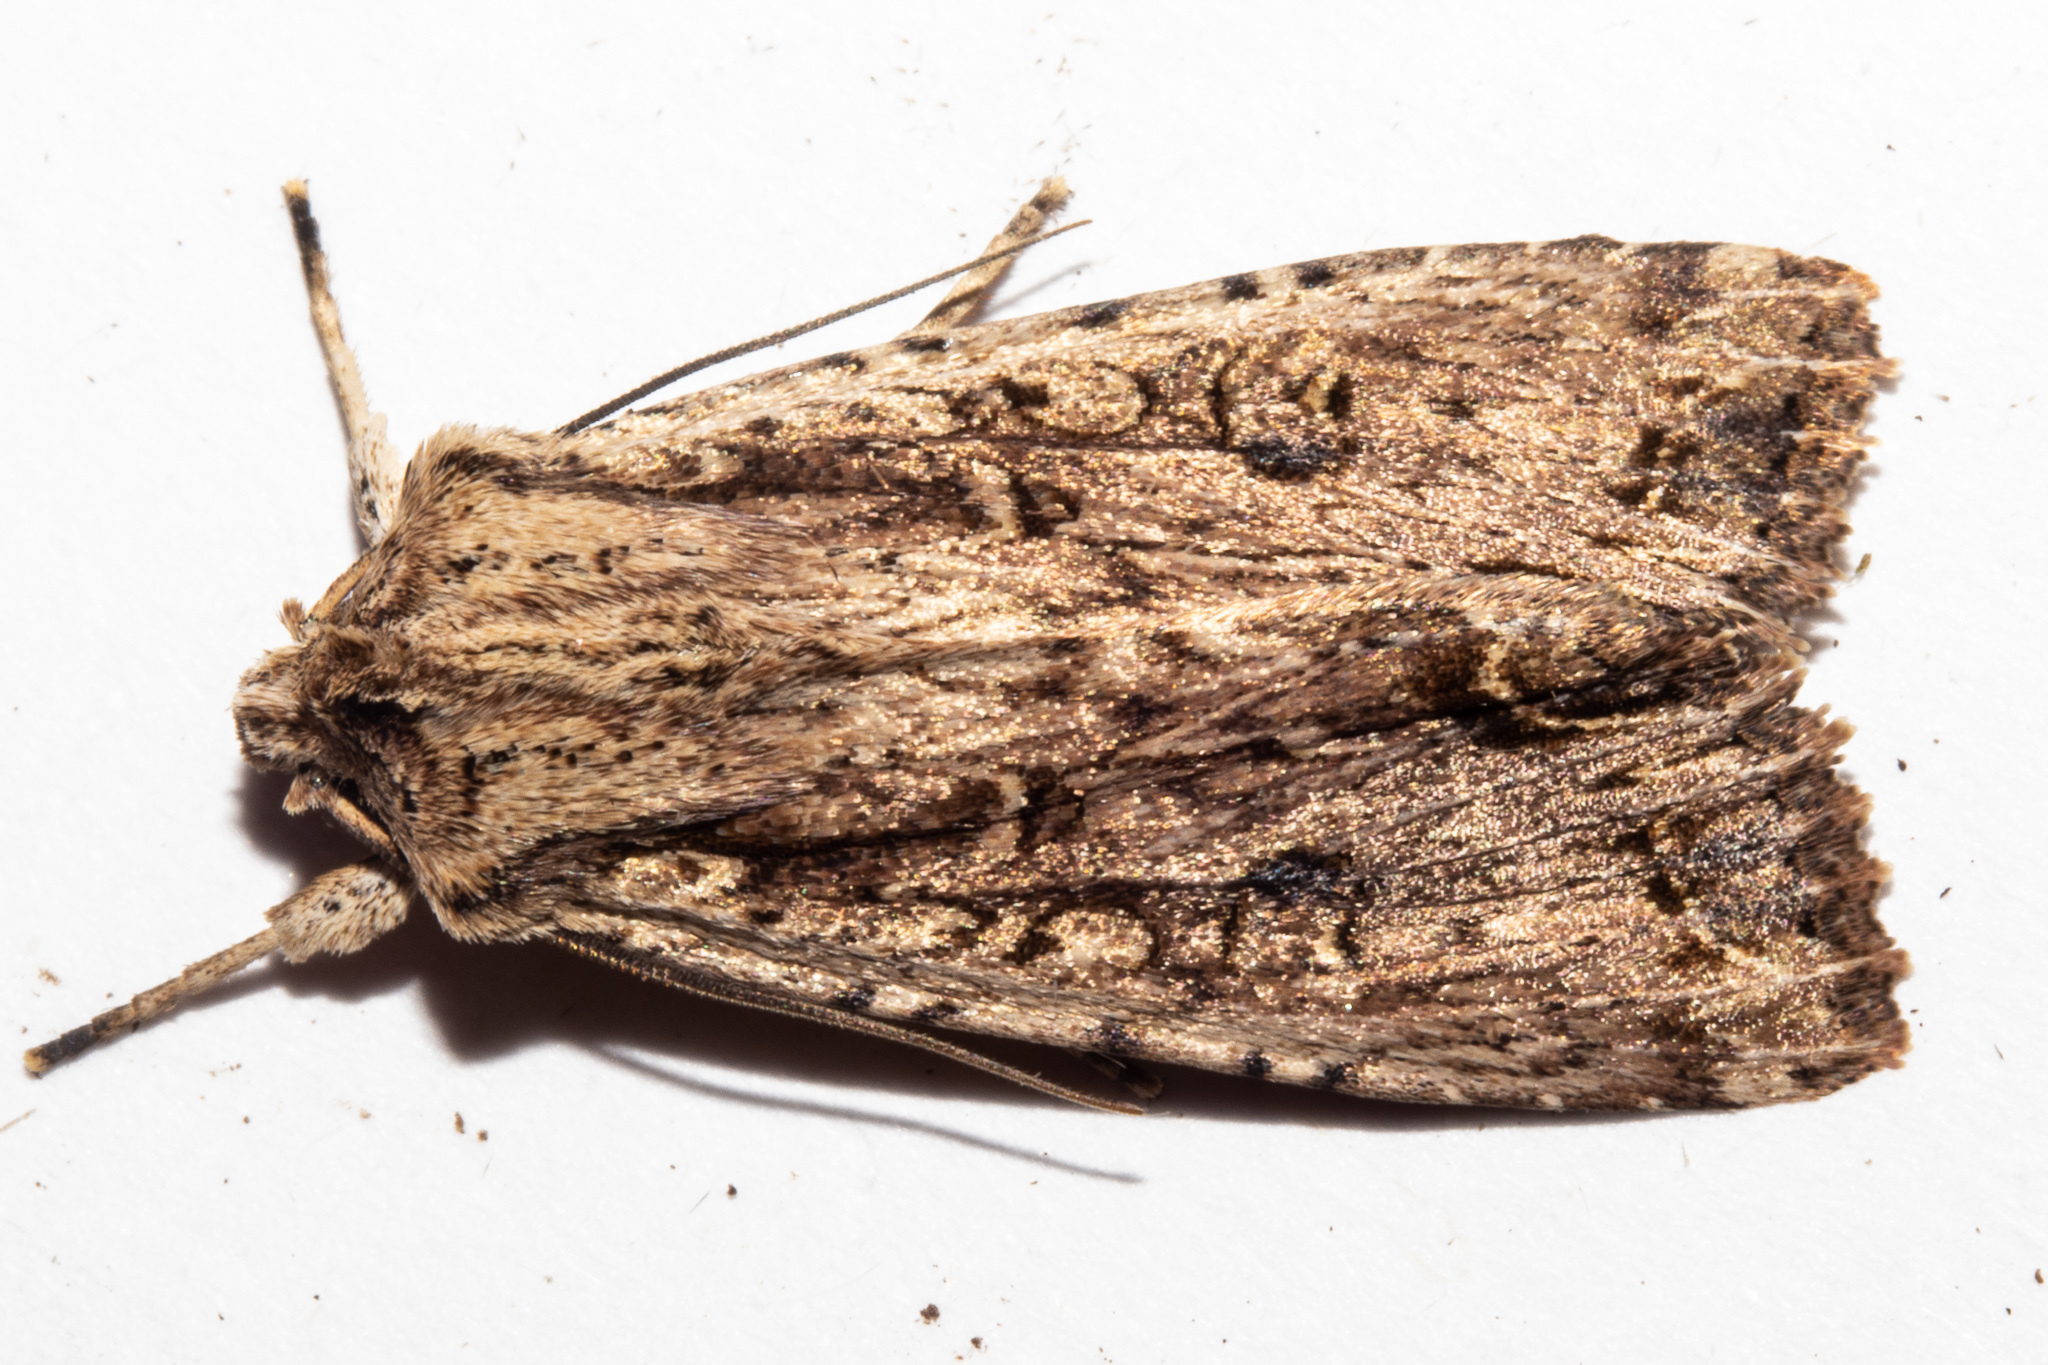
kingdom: Animalia
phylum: Arthropoda
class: Insecta
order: Lepidoptera
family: Noctuidae
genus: Ichneutica
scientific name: Ichneutica lignana
